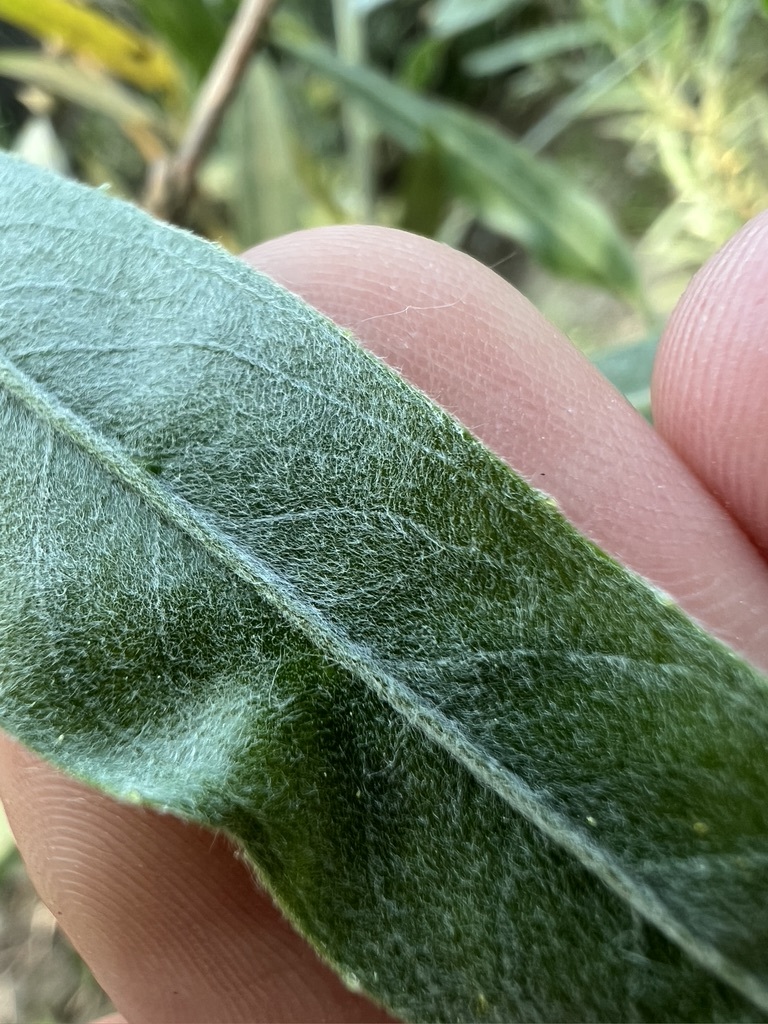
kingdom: Plantae
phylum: Tracheophyta
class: Magnoliopsida
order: Malpighiales
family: Salicaceae
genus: Salix
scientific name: Salix exigua
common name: Coyote willow
